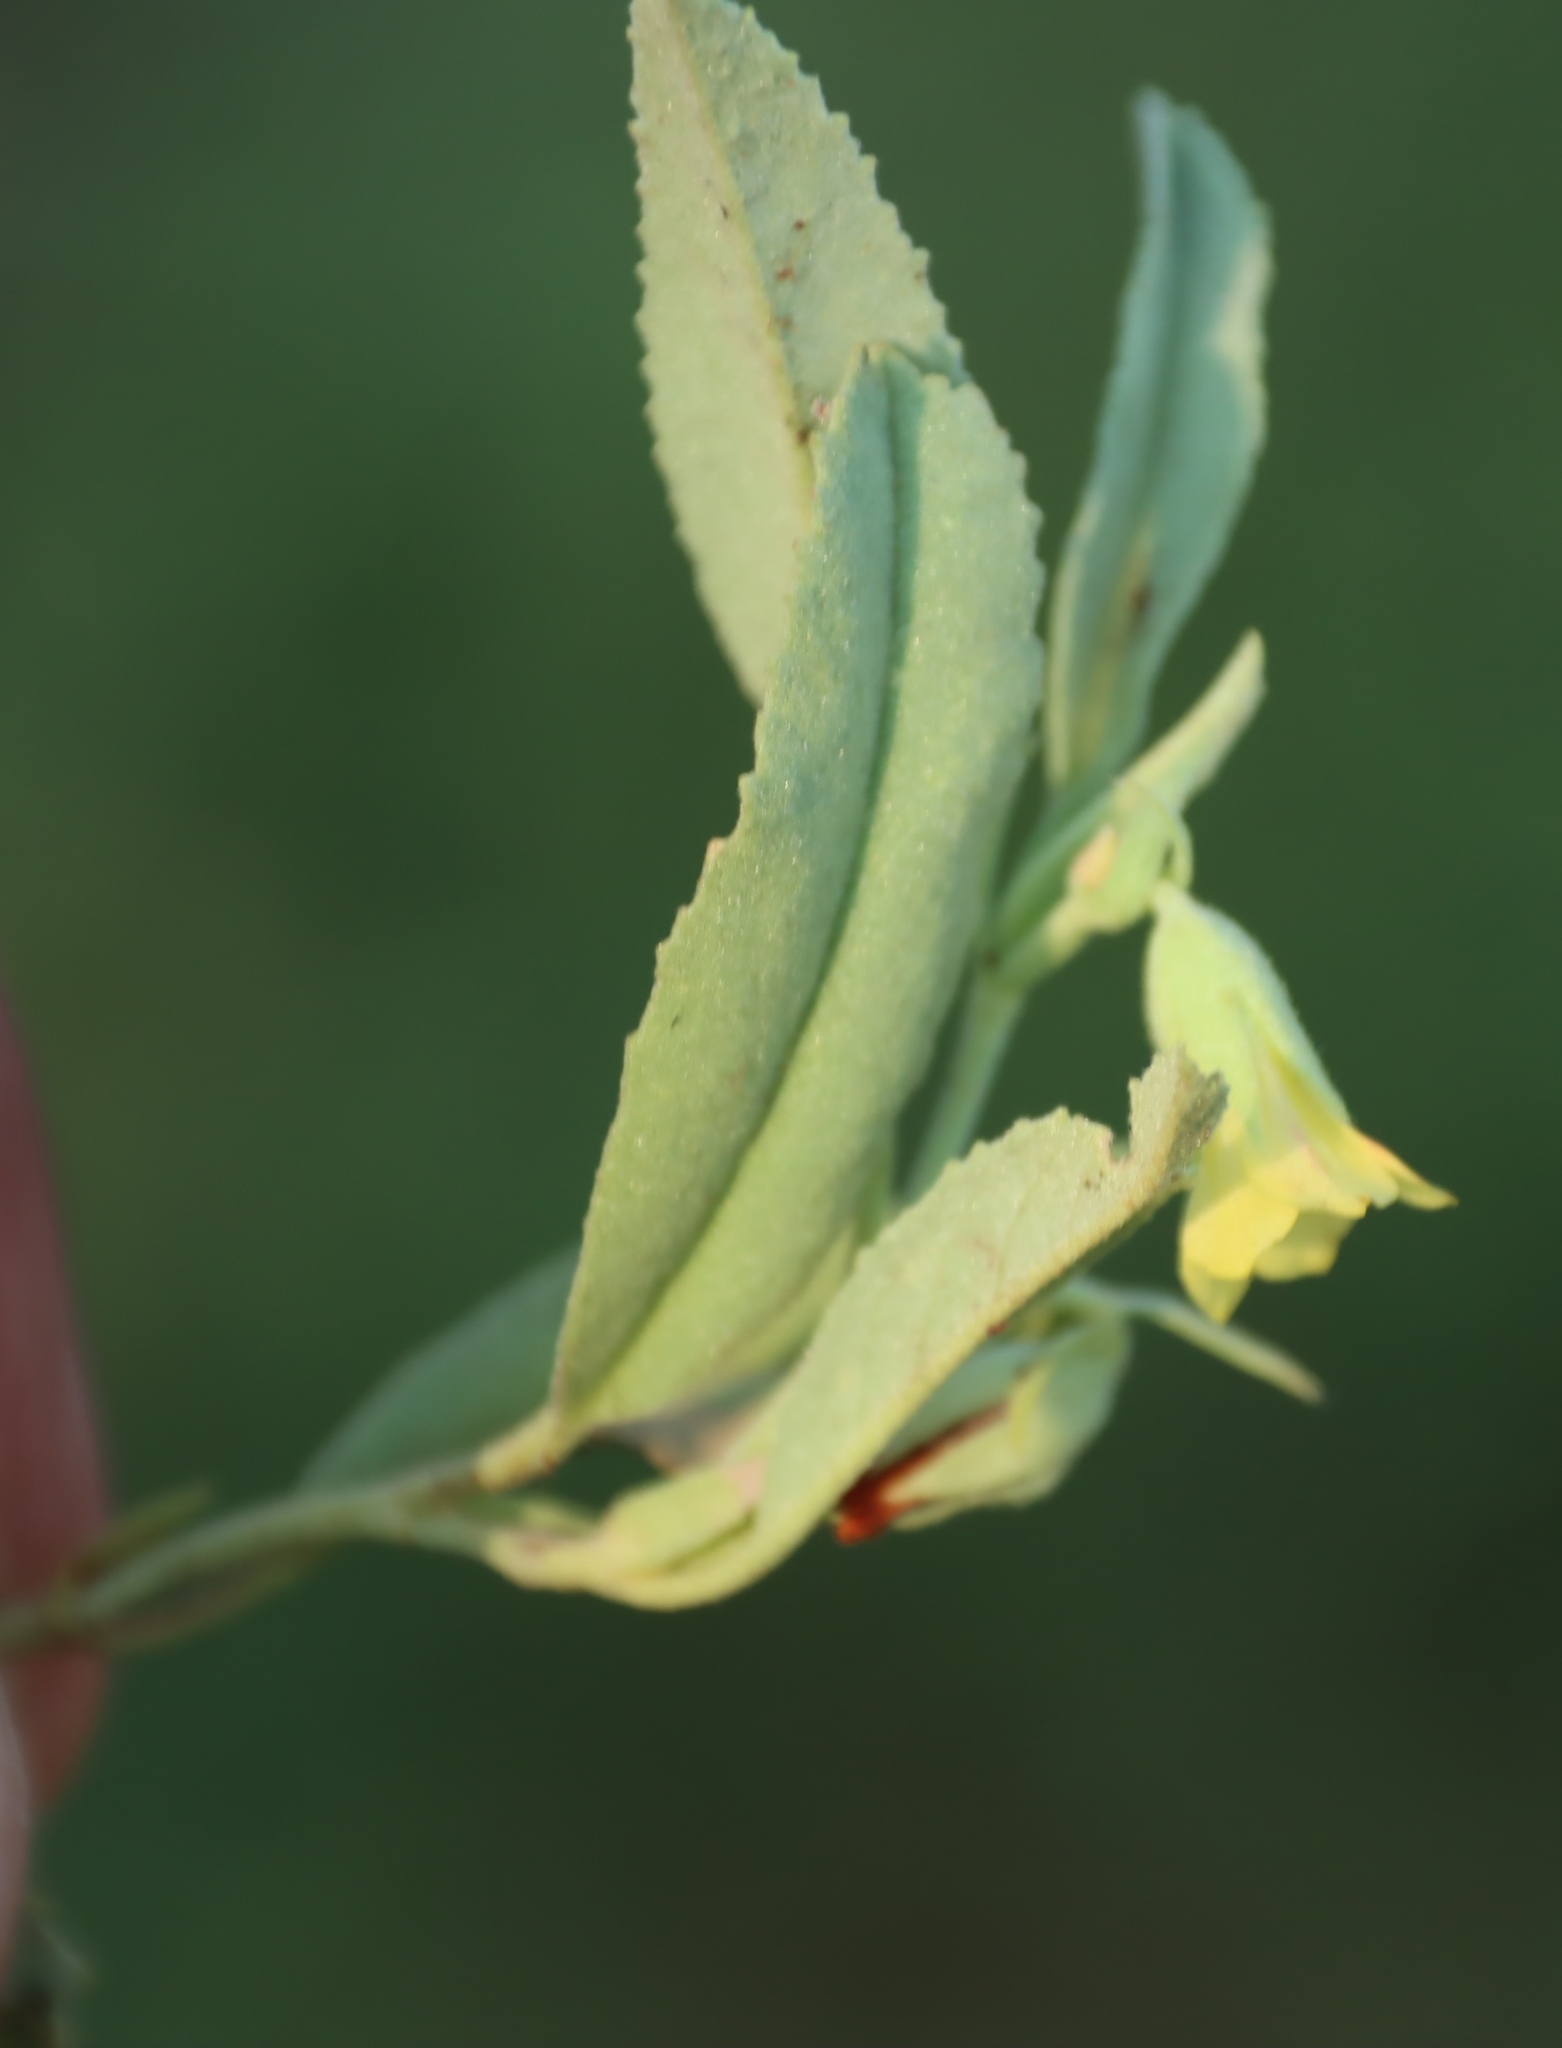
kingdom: Plantae
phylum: Tracheophyta
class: Magnoliopsida
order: Malvales
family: Malvaceae
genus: Hermannia
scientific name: Hermannia montana
